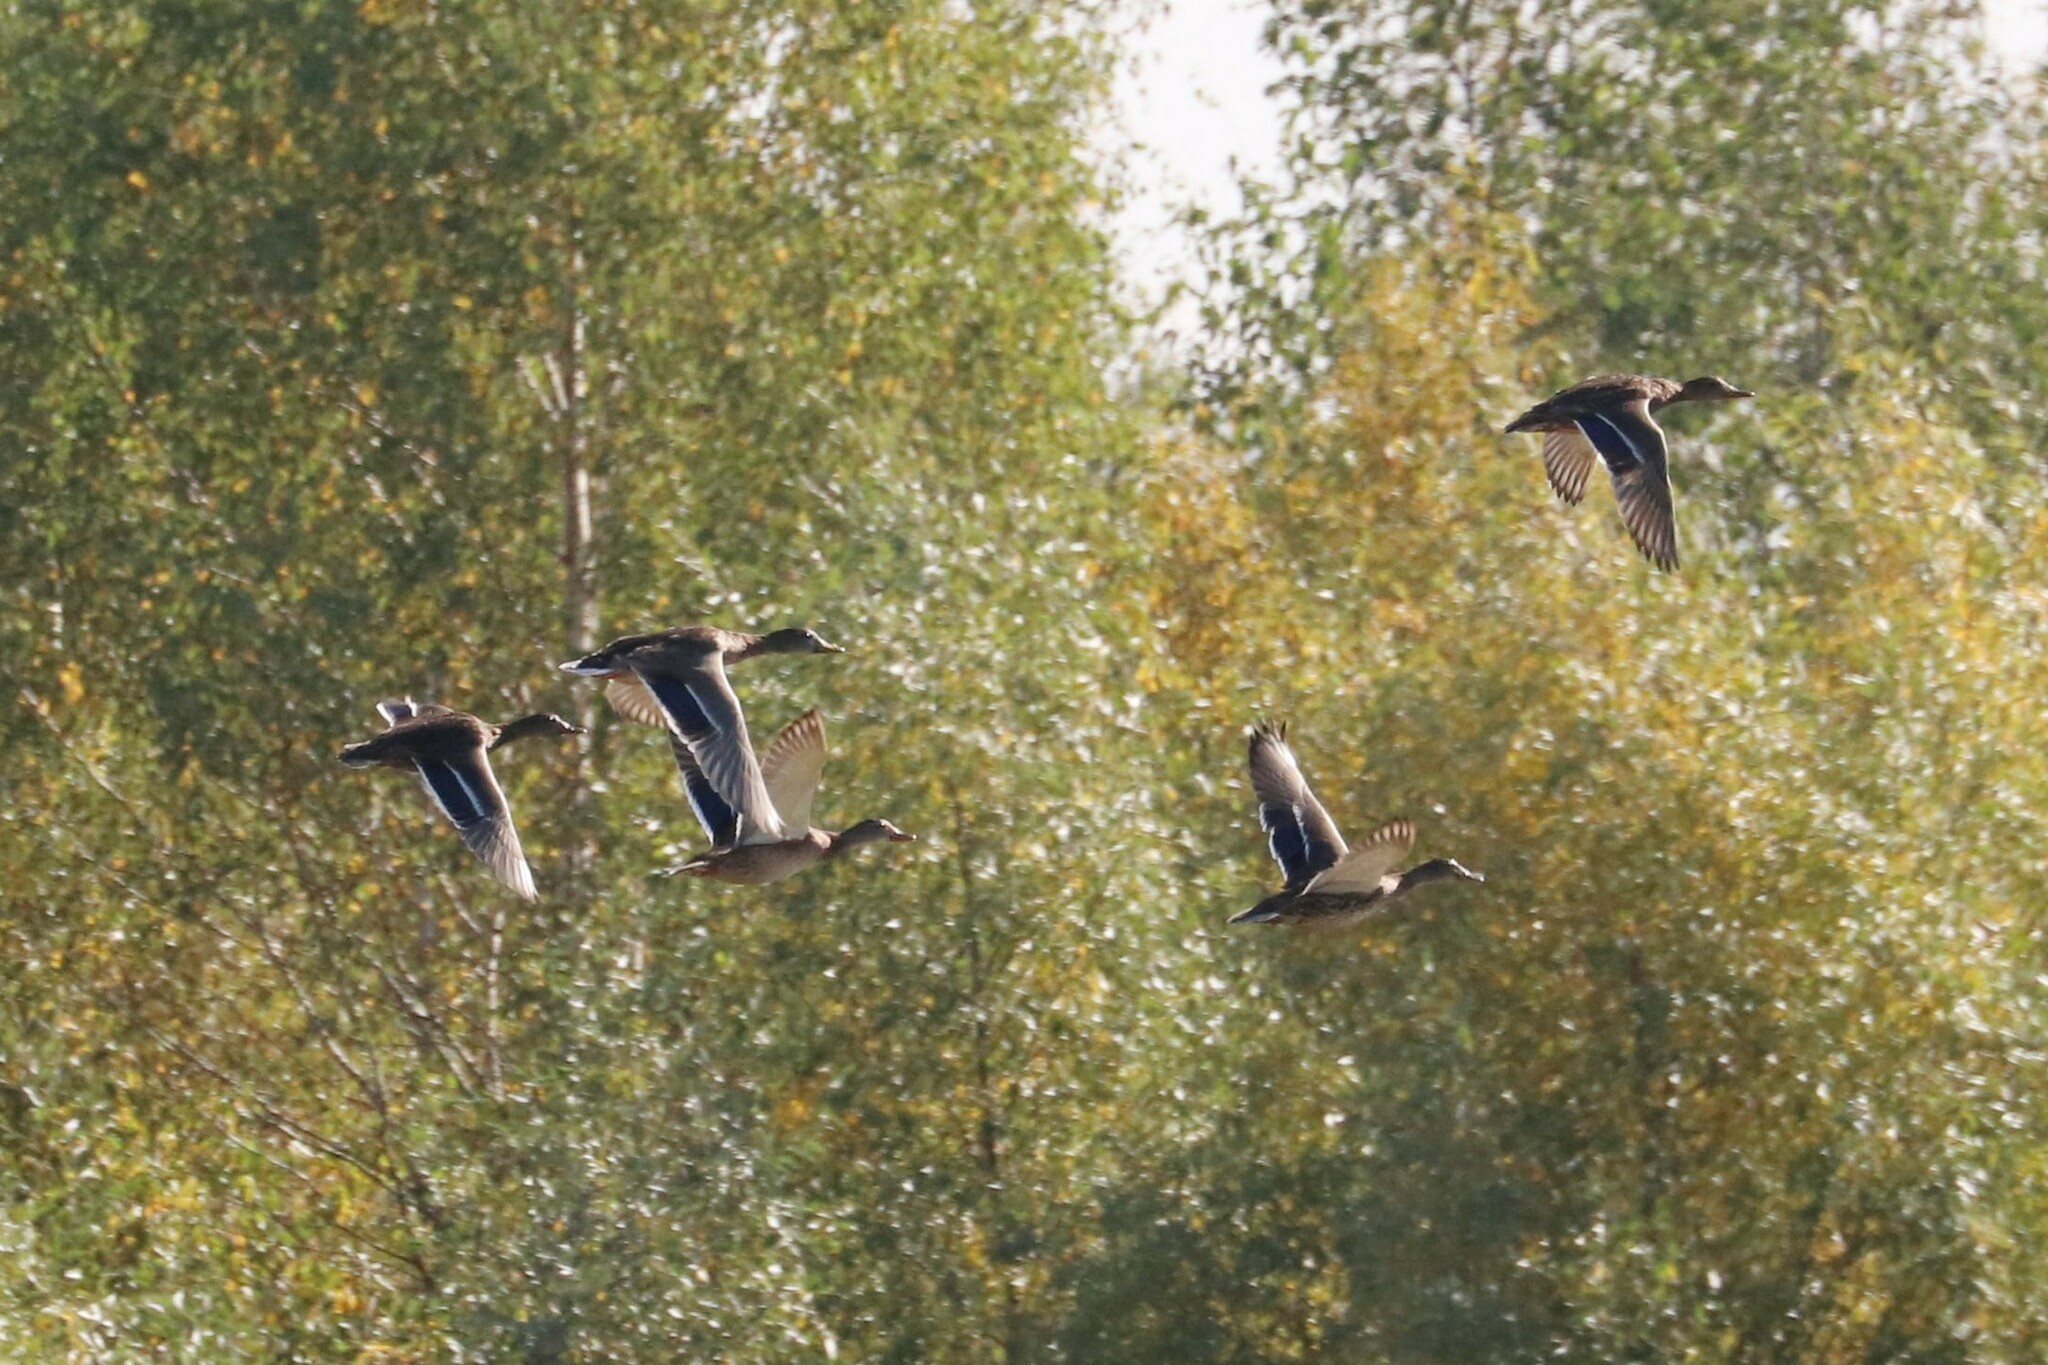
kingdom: Animalia
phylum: Chordata
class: Aves
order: Anseriformes
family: Anatidae
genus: Anas
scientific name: Anas platyrhynchos
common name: Mallard
